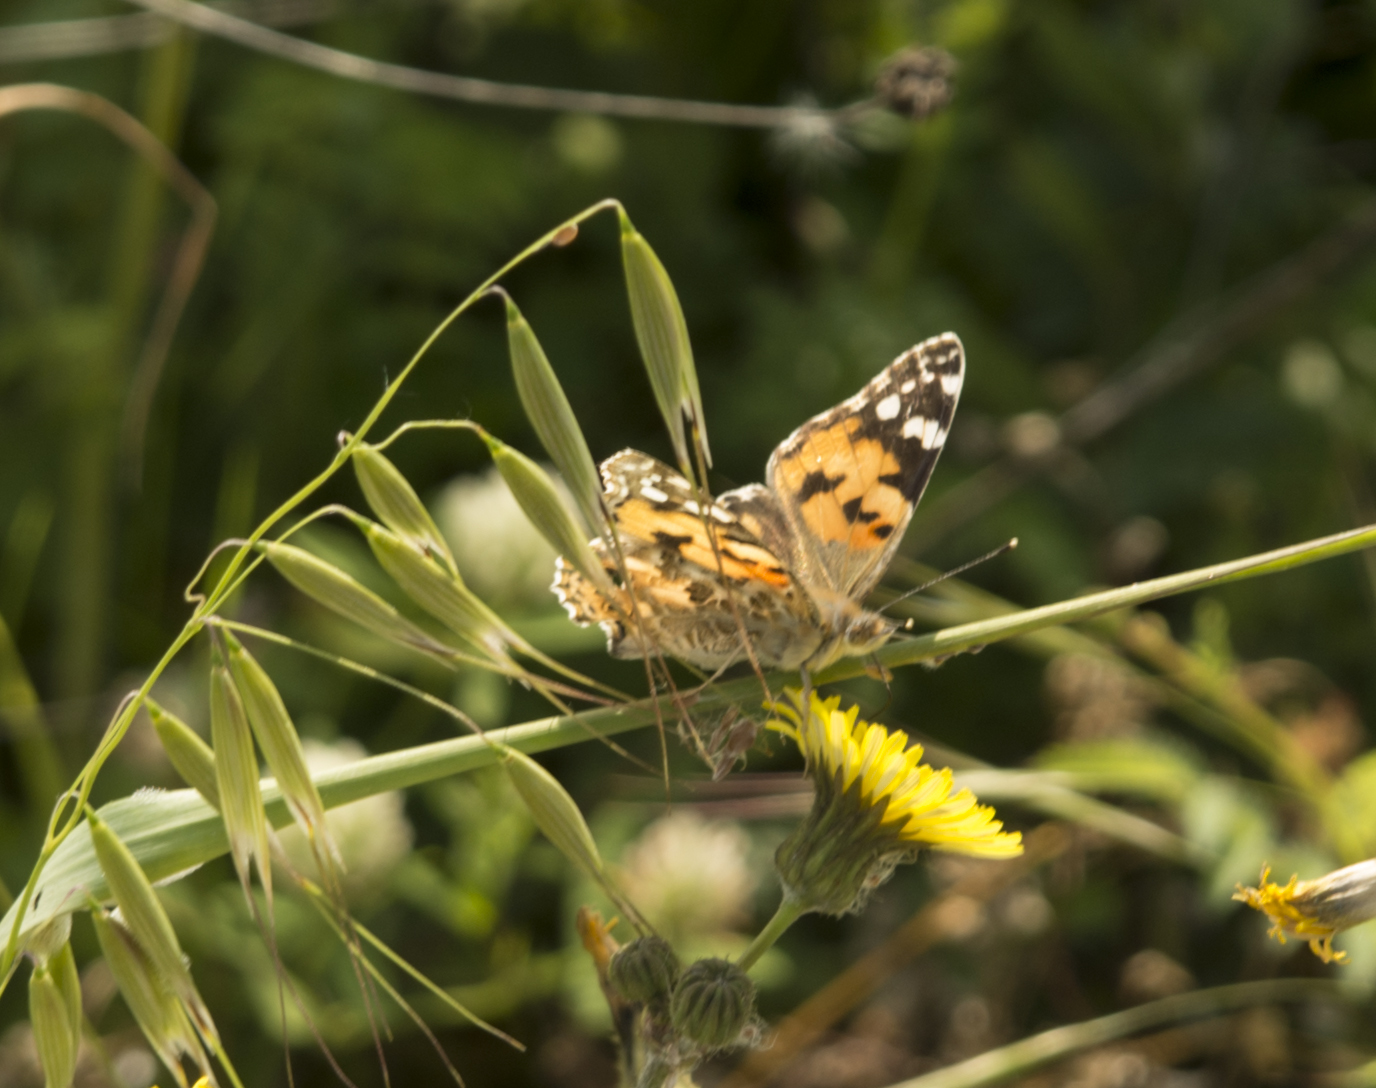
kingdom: Animalia
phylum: Arthropoda
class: Insecta
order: Lepidoptera
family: Nymphalidae
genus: Vanessa
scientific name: Vanessa cardui
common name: Painted lady
